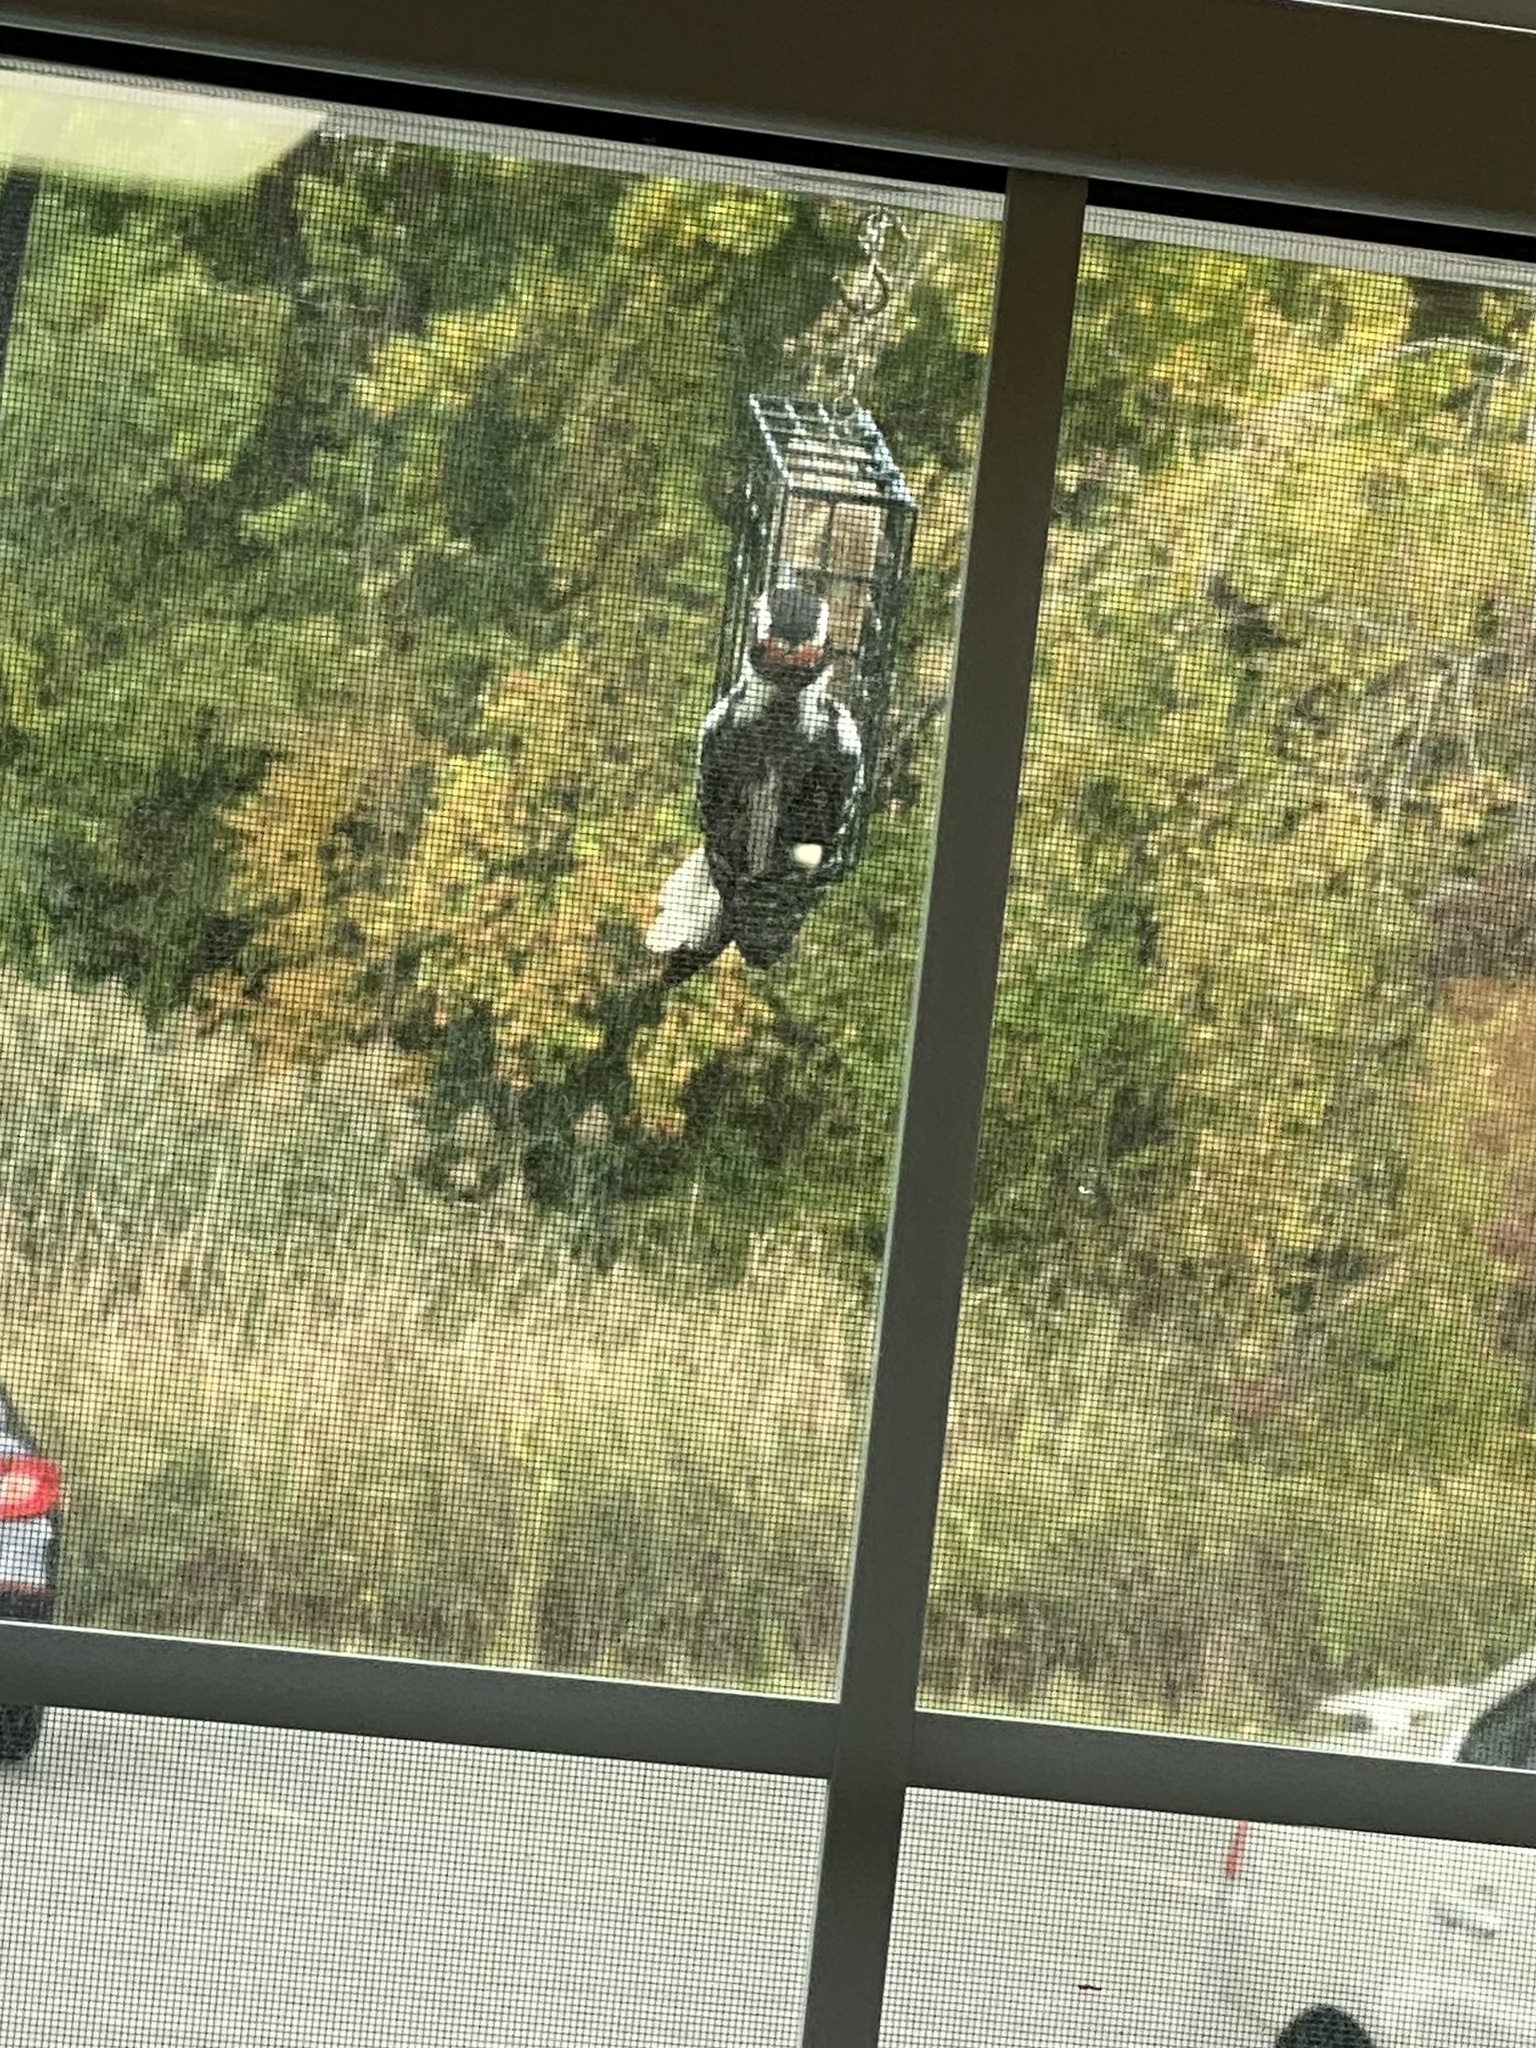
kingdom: Animalia
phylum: Chordata
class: Aves
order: Piciformes
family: Picidae
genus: Leuconotopicus
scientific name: Leuconotopicus villosus
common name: Hairy woodpecker
